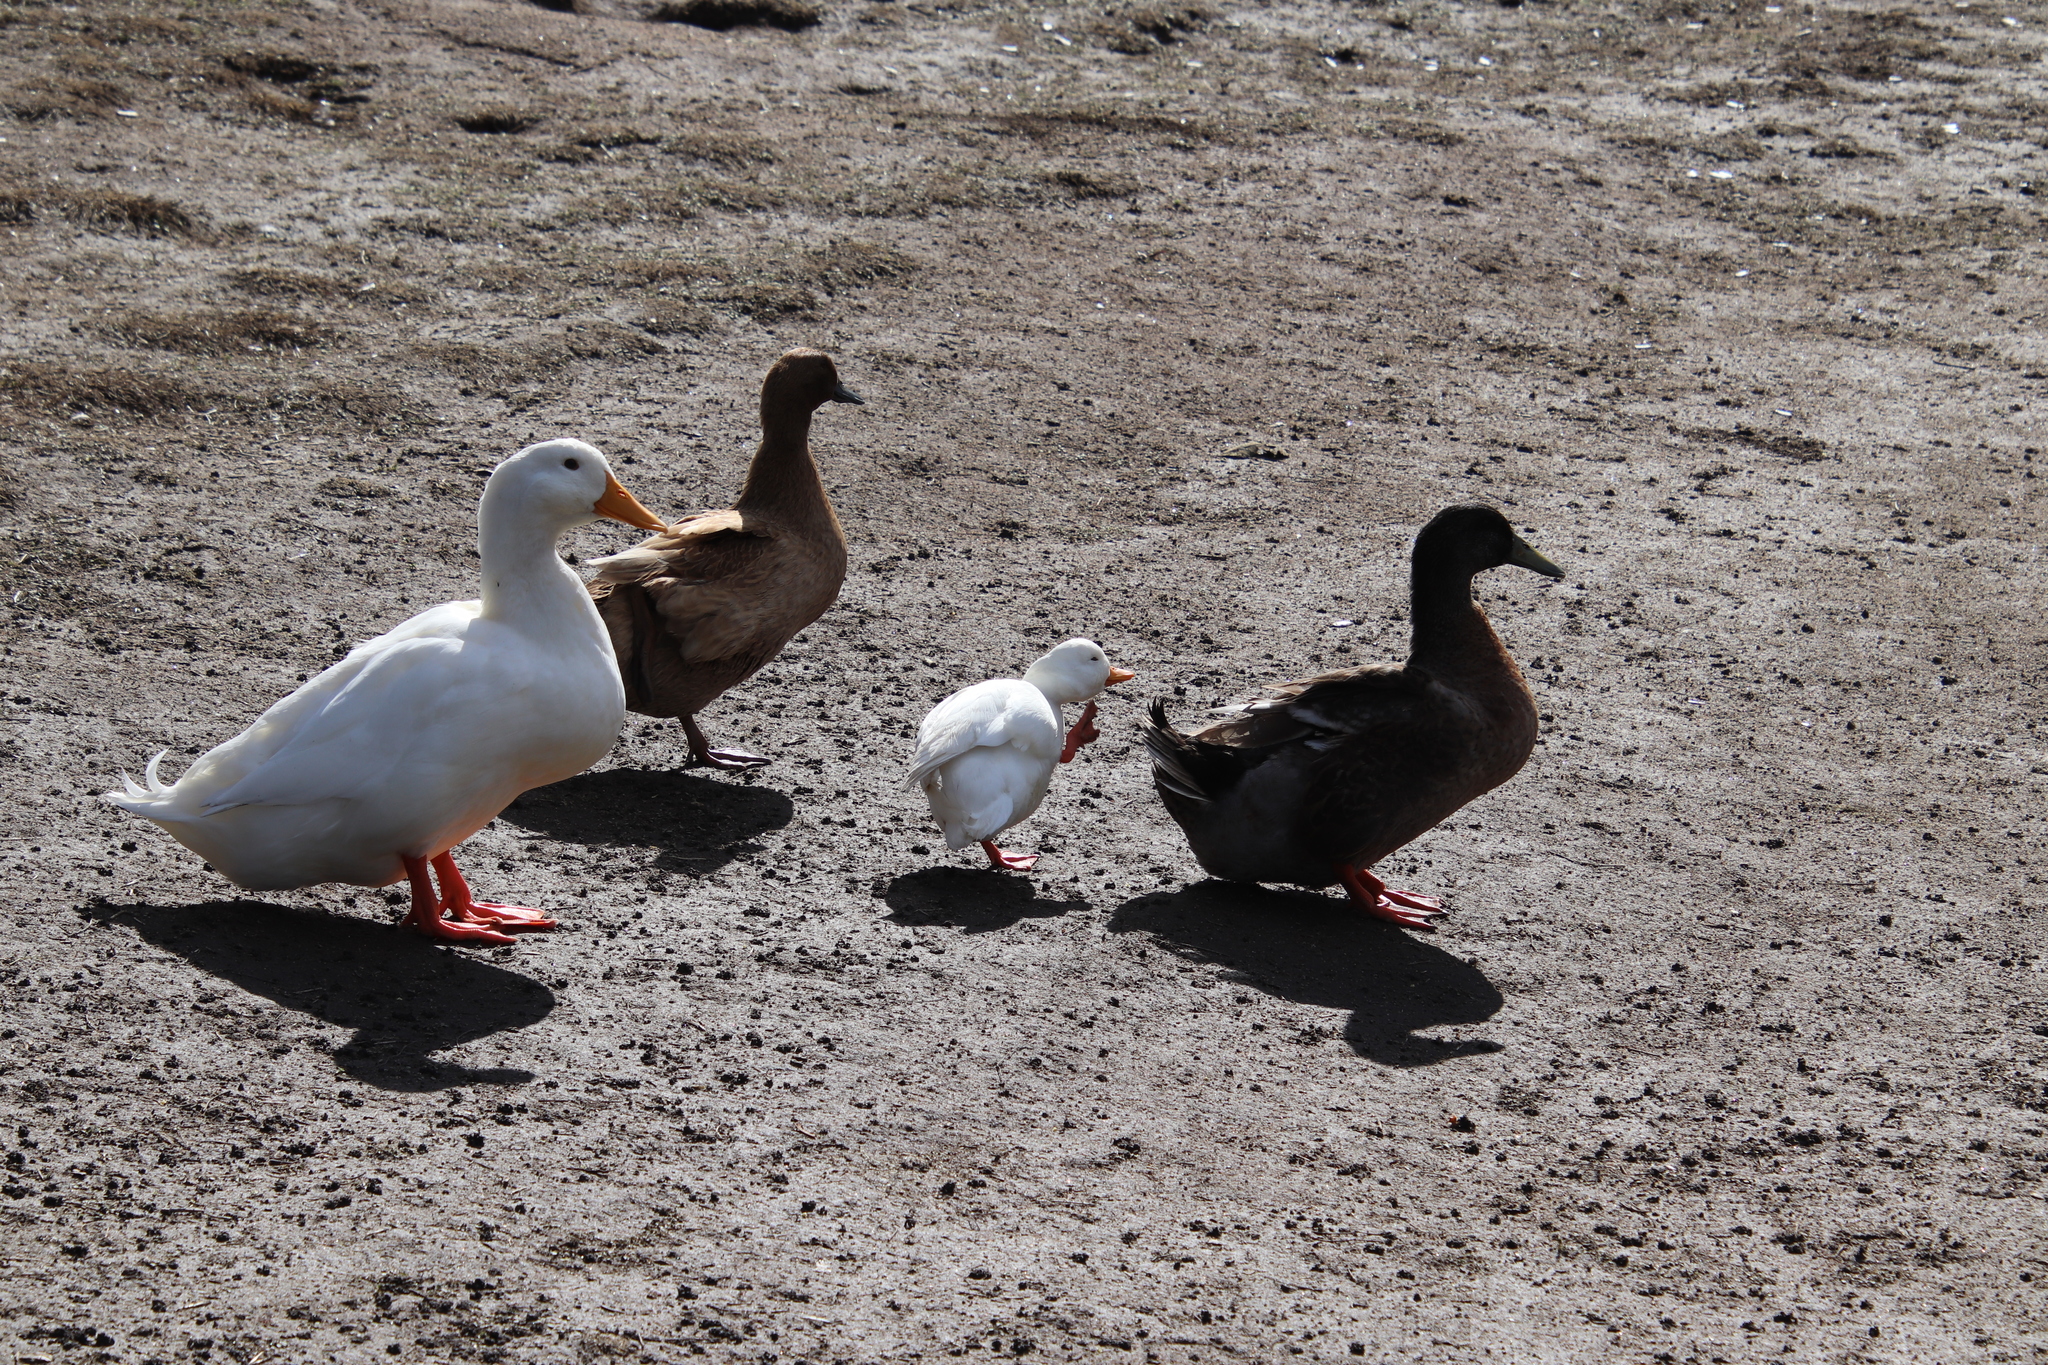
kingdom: Animalia
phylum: Chordata
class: Aves
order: Anseriformes
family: Anatidae
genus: Anas
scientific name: Anas platyrhynchos
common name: Mallard
